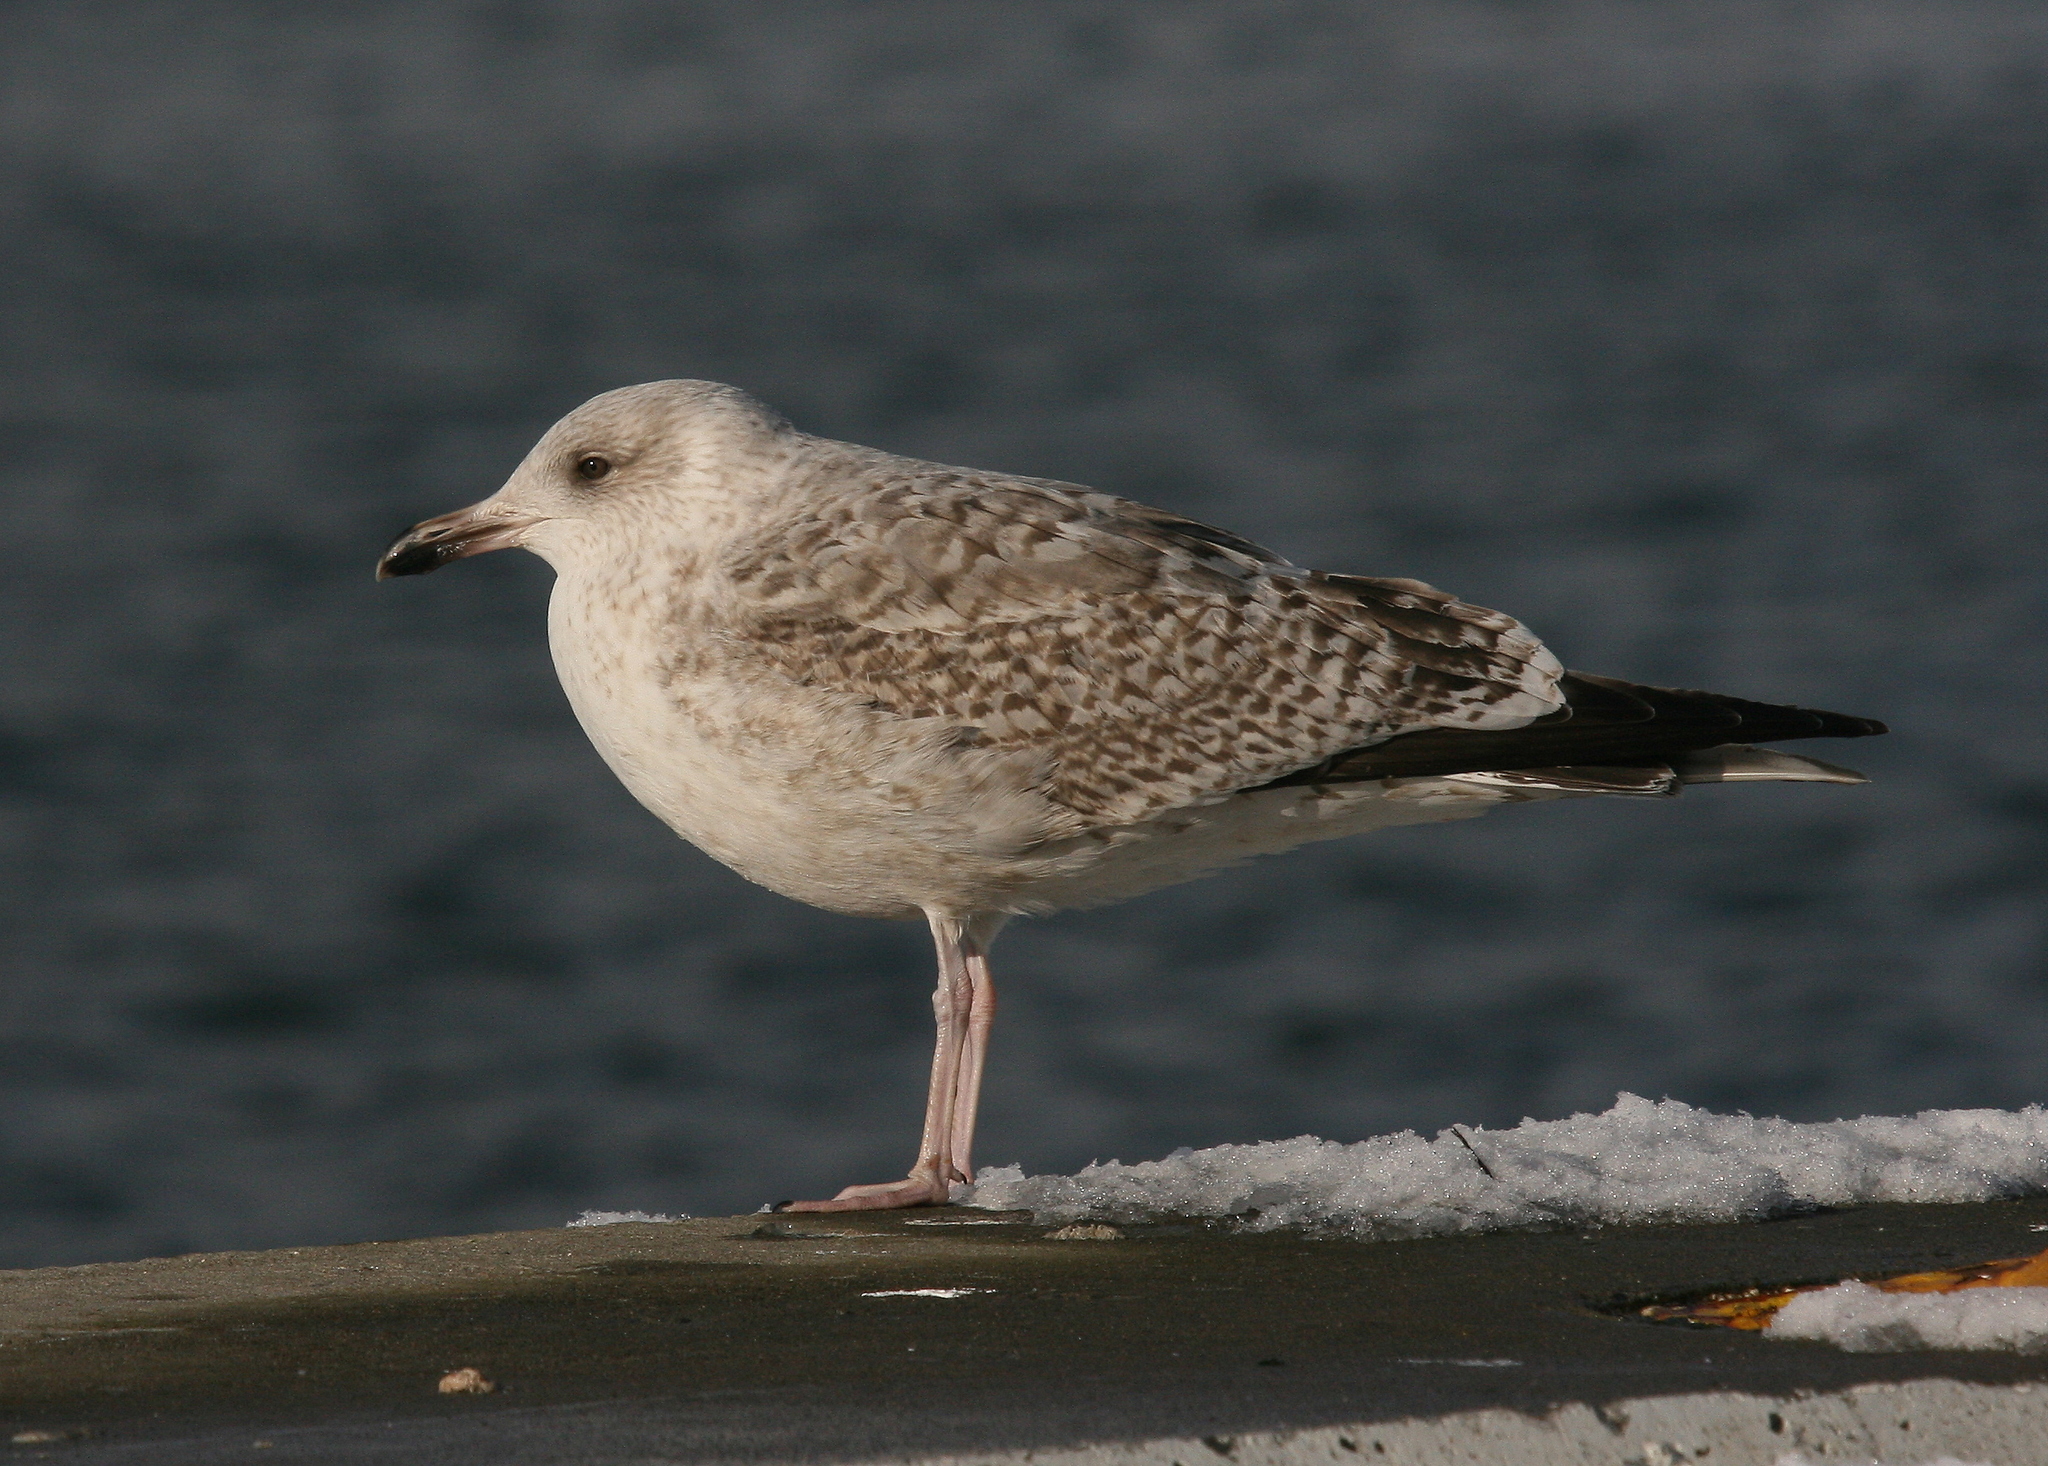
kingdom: Animalia
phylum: Chordata
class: Aves
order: Charadriiformes
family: Laridae
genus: Larus
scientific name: Larus argentatus
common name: Herring gull
